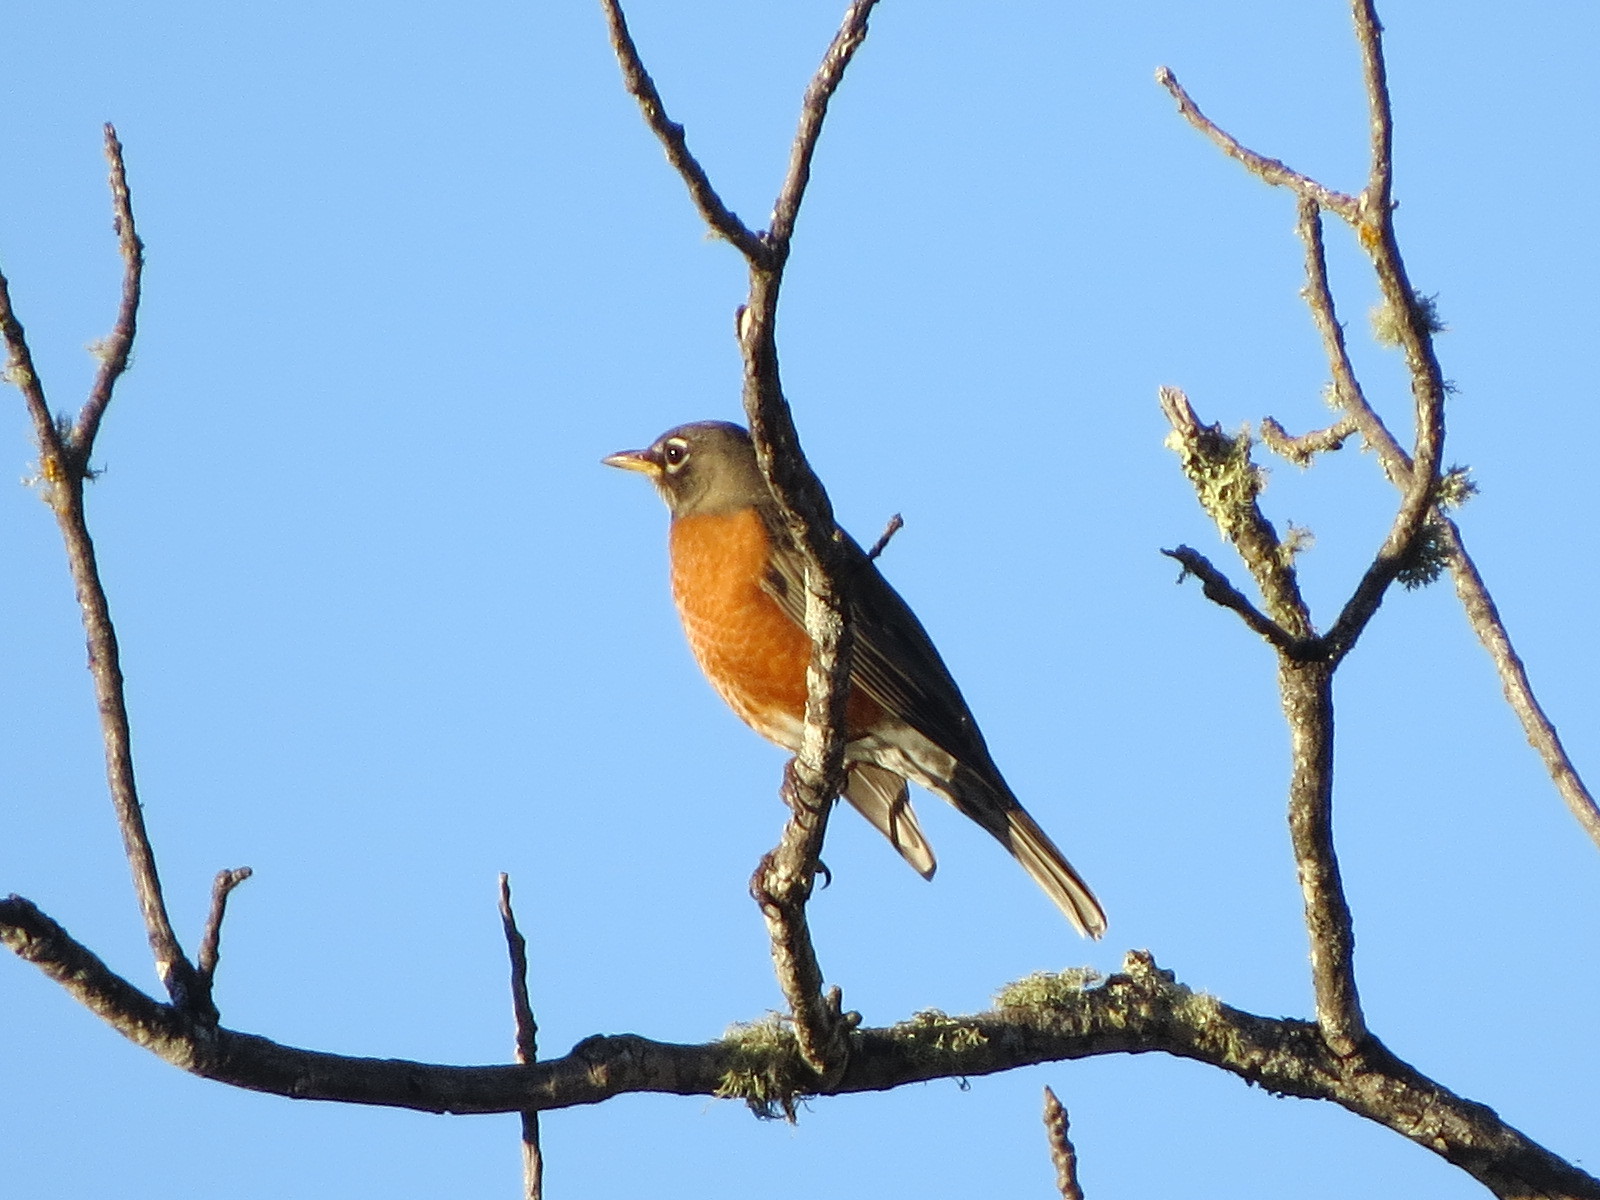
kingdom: Animalia
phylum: Chordata
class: Aves
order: Passeriformes
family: Turdidae
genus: Turdus
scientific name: Turdus migratorius
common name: American robin
